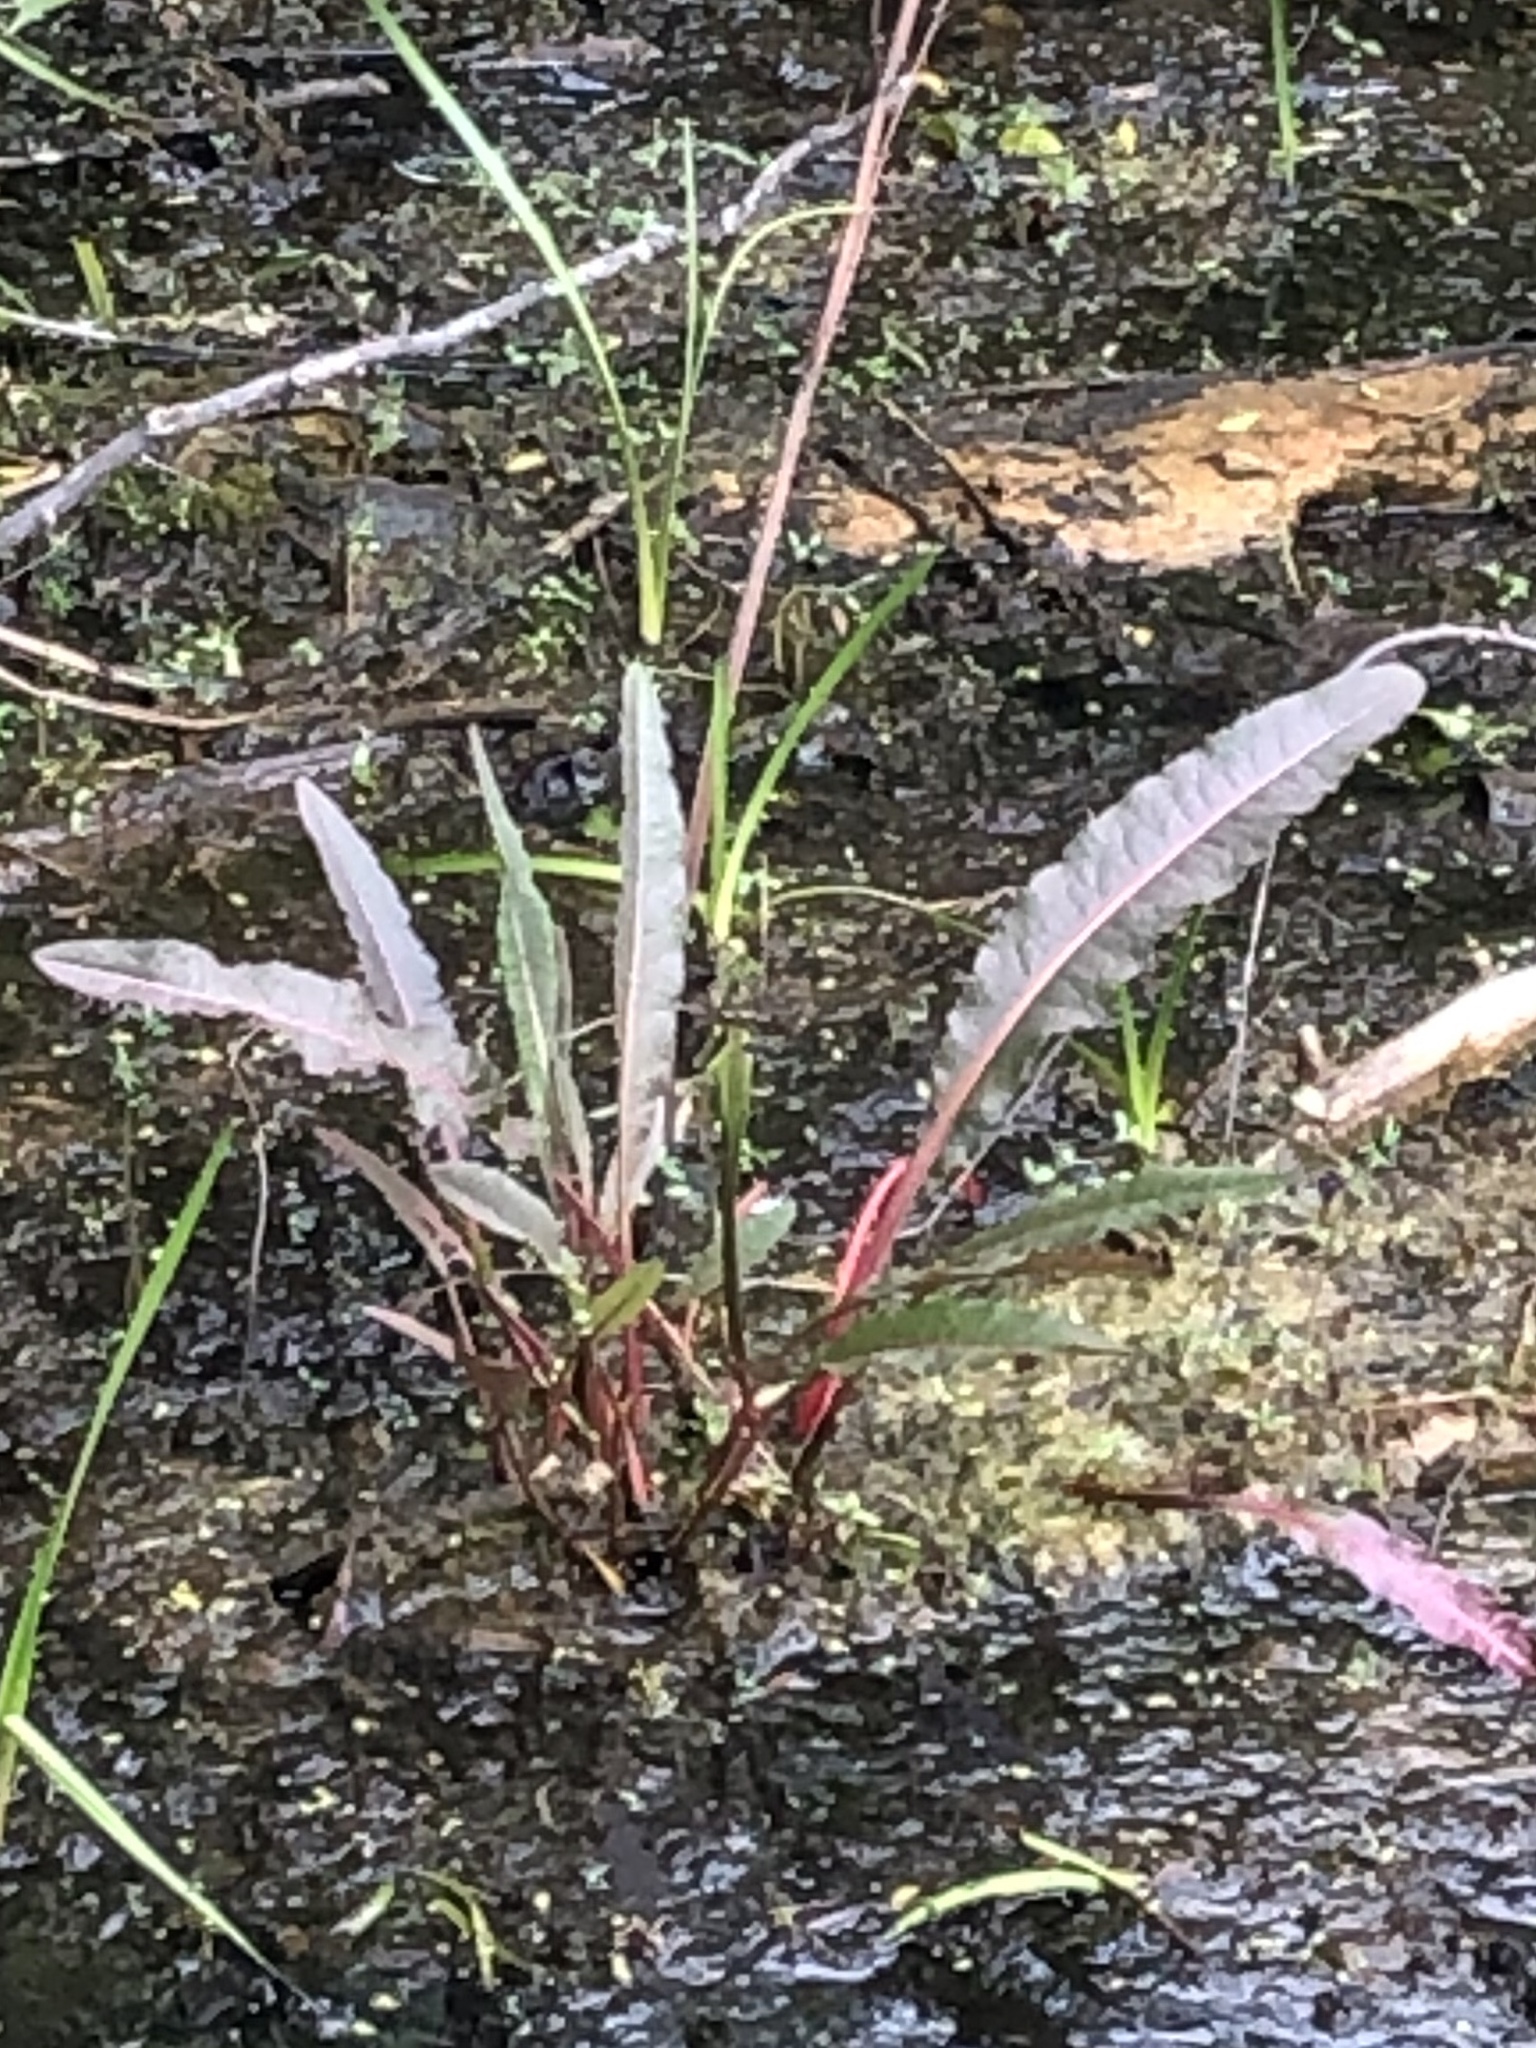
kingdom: Plantae
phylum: Tracheophyta
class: Magnoliopsida
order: Caryophyllales
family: Polygonaceae
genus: Rumex
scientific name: Rumex verticillatus
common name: Swamp dock
